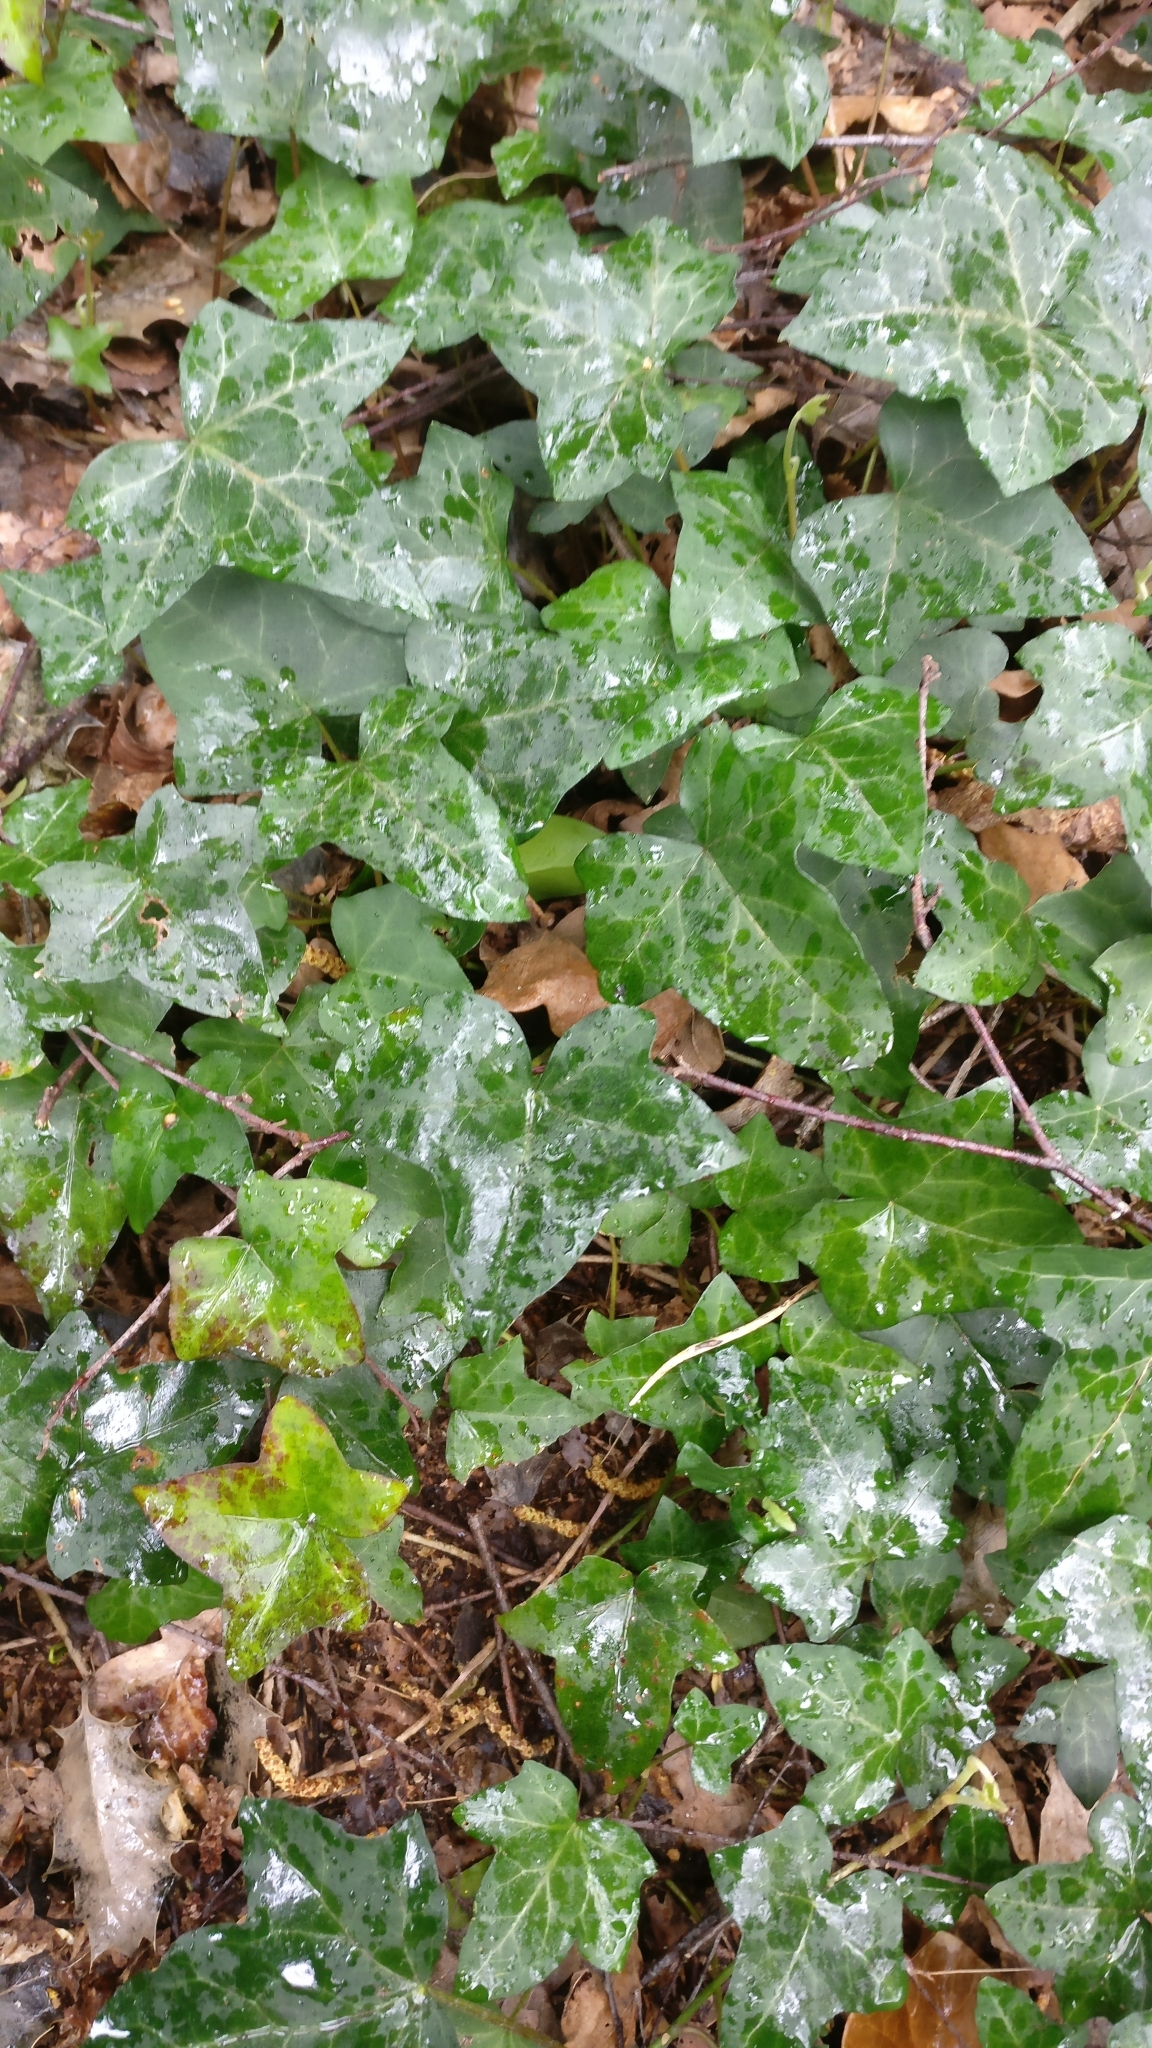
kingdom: Plantae
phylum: Tracheophyta
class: Magnoliopsida
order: Apiales
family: Araliaceae
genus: Hedera
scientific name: Hedera helix
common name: Ivy
